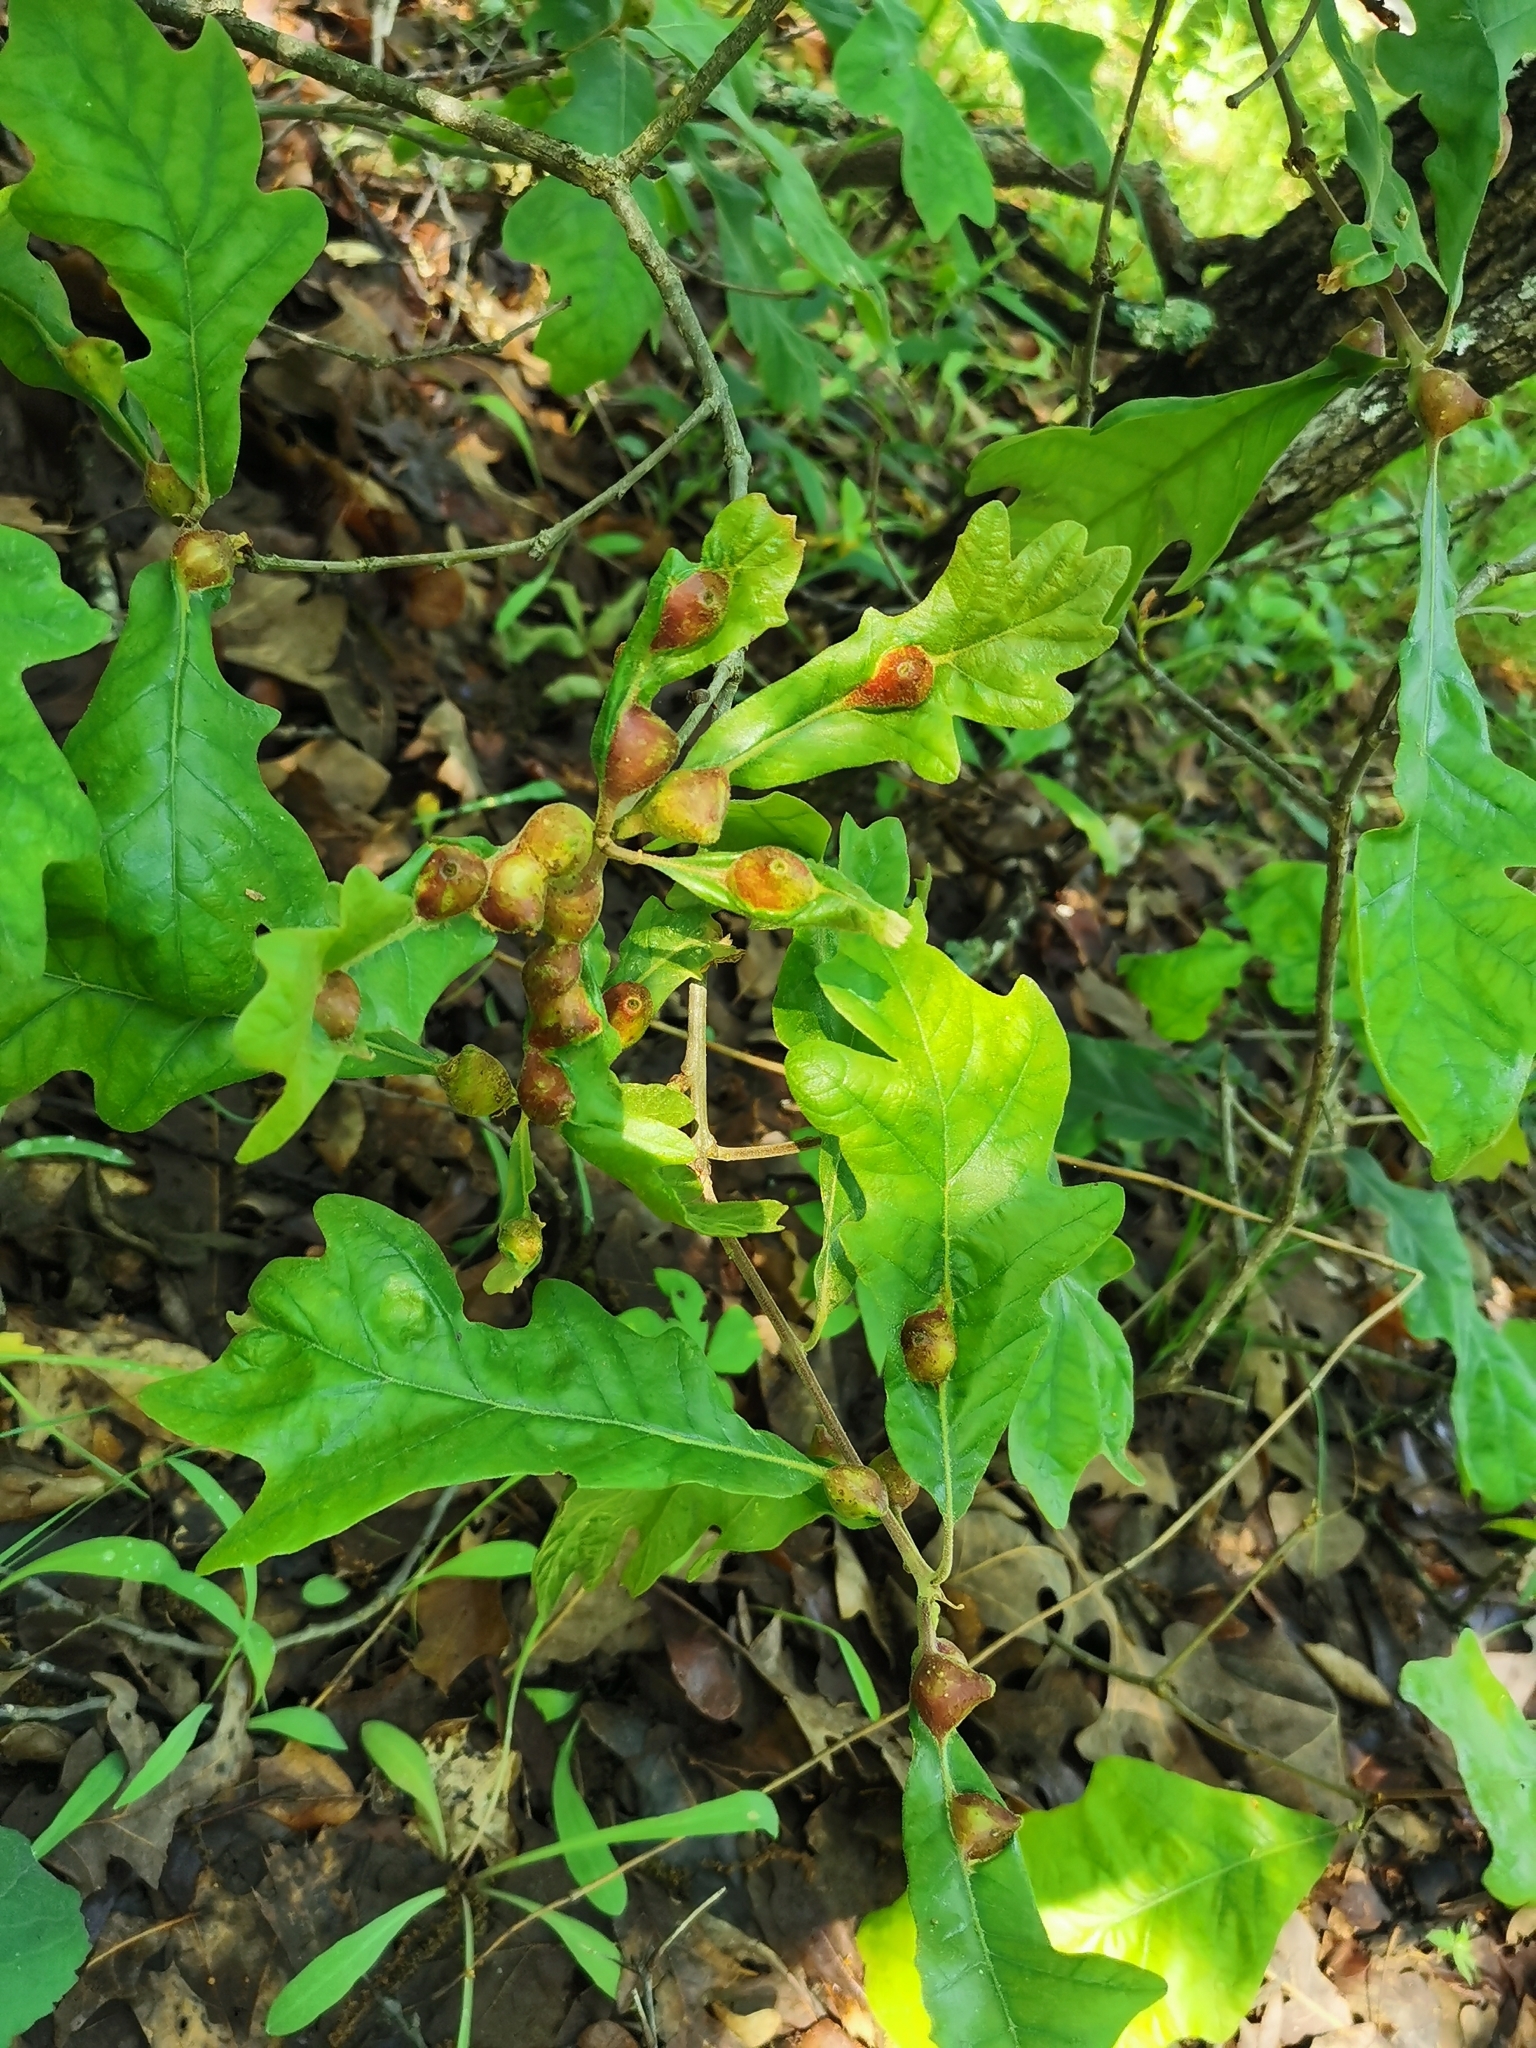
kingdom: Animalia
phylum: Arthropoda
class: Insecta
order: Hymenoptera
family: Cynipidae
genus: Andricus
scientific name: Andricus
